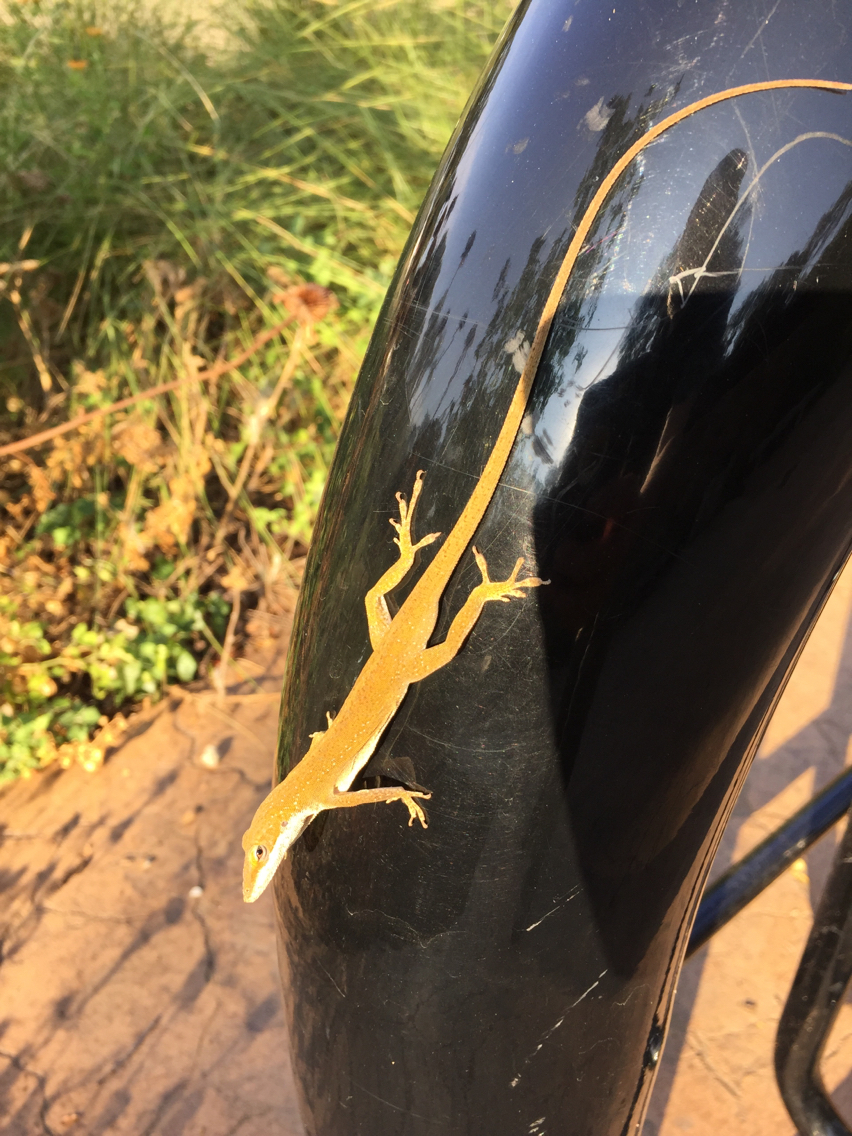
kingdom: Animalia
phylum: Chordata
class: Squamata
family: Dactyloidae
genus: Anolis
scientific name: Anolis carolinensis
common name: Green anole
